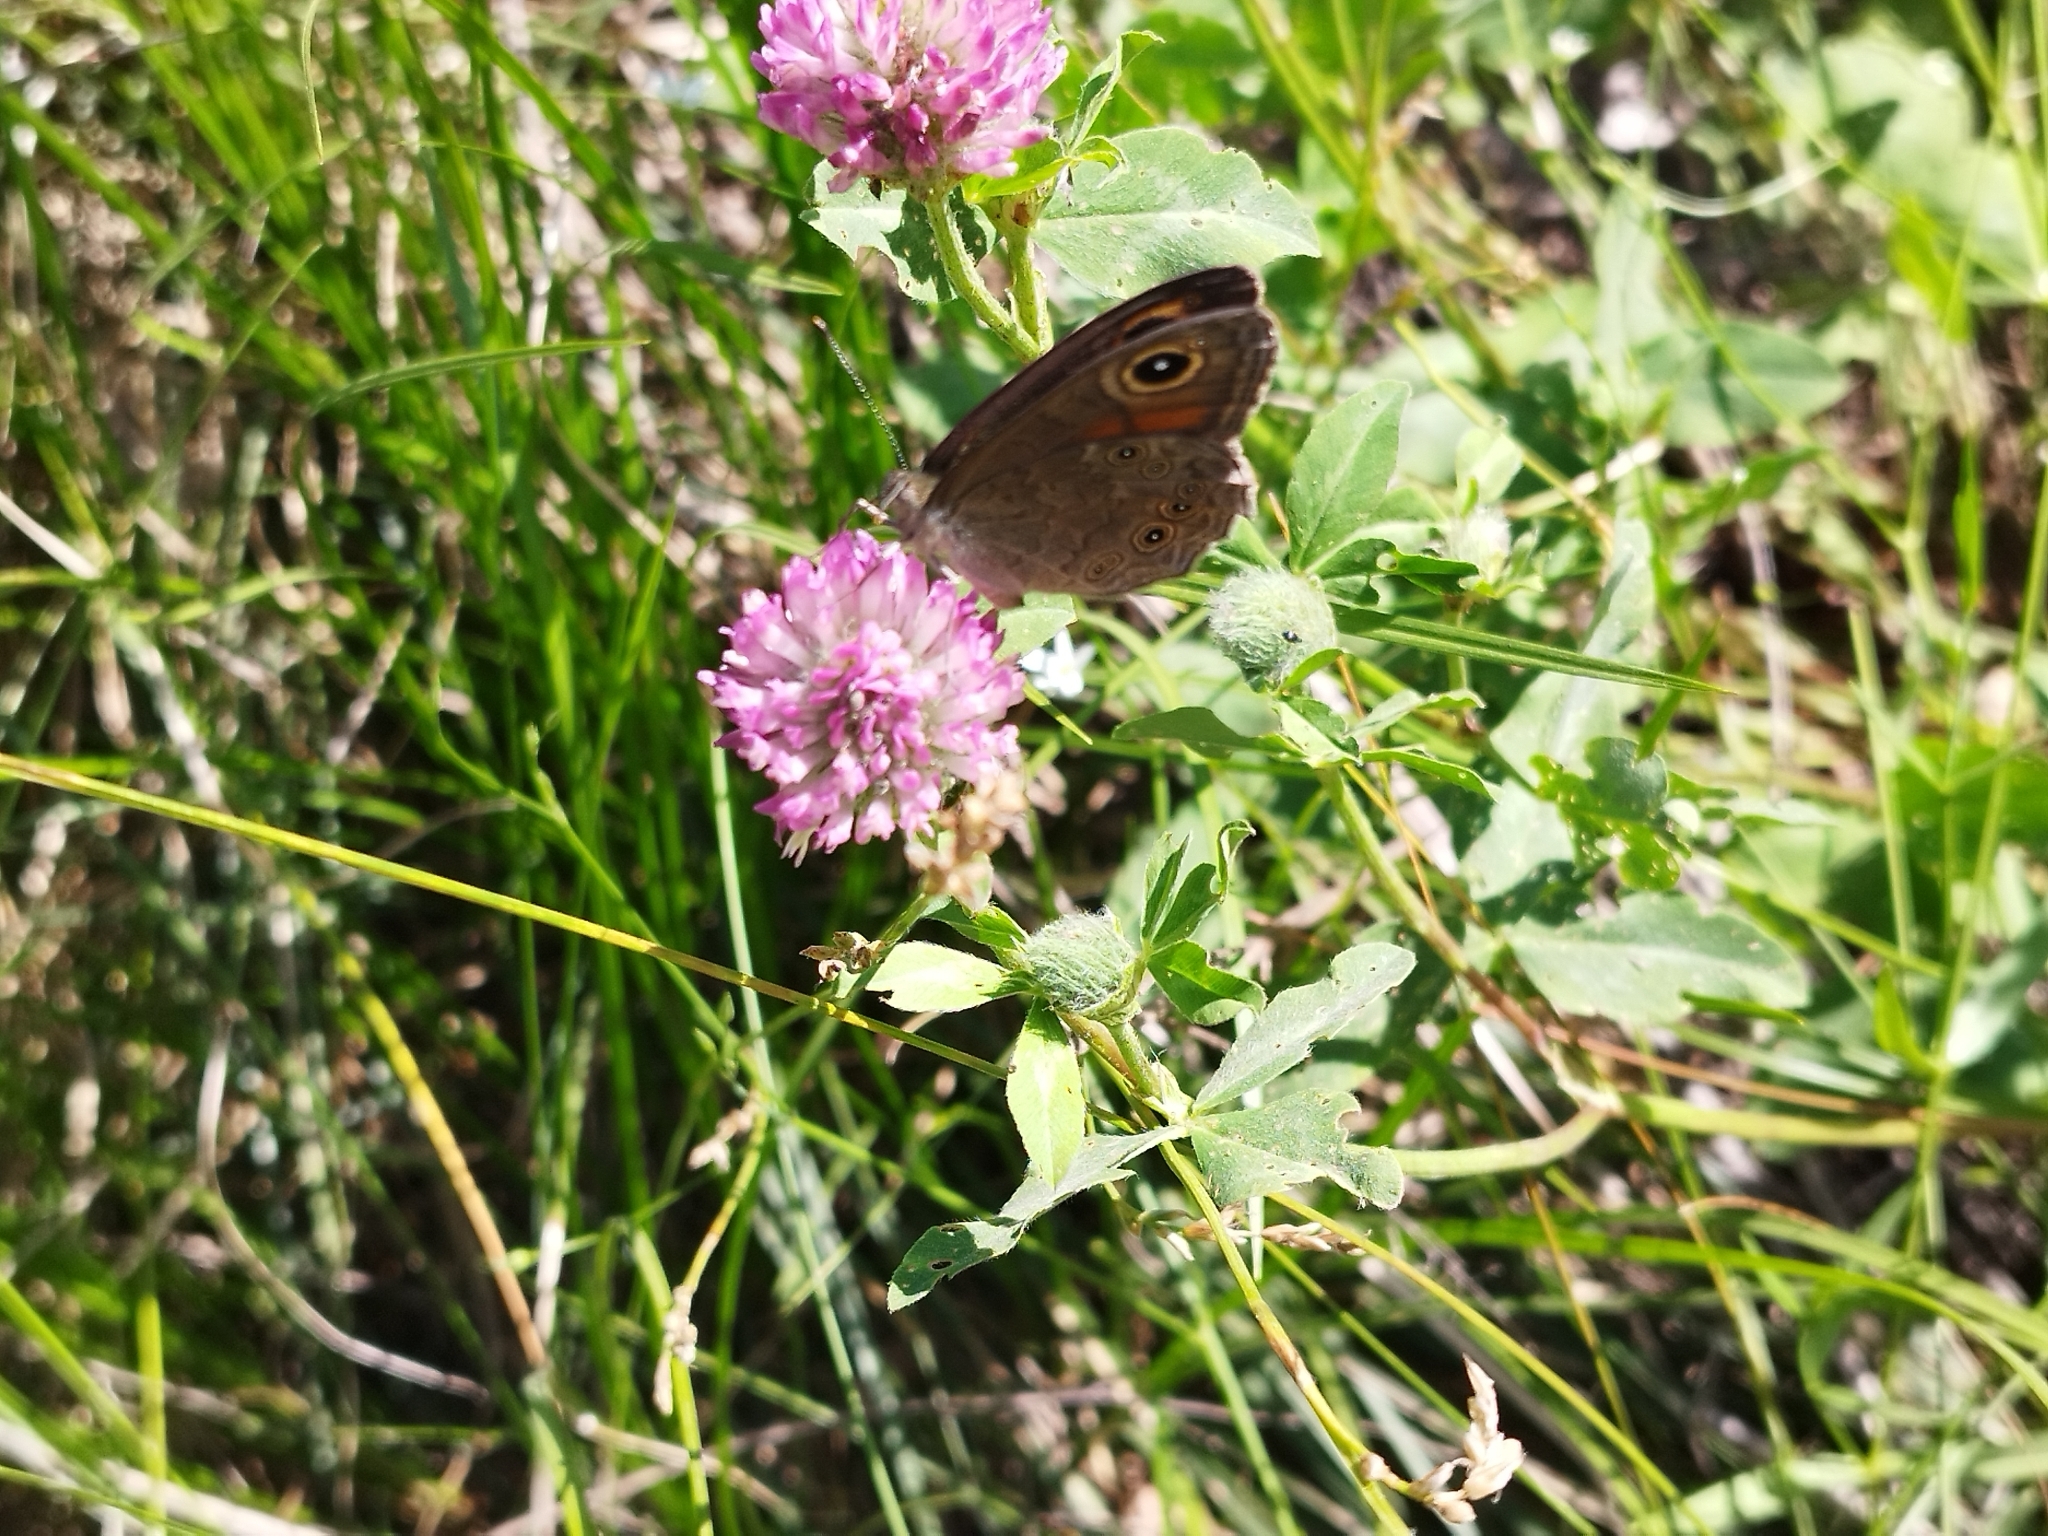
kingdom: Animalia
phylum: Arthropoda
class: Insecta
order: Lepidoptera
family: Nymphalidae
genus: Pararge
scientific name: Pararge Lasiommata maera
